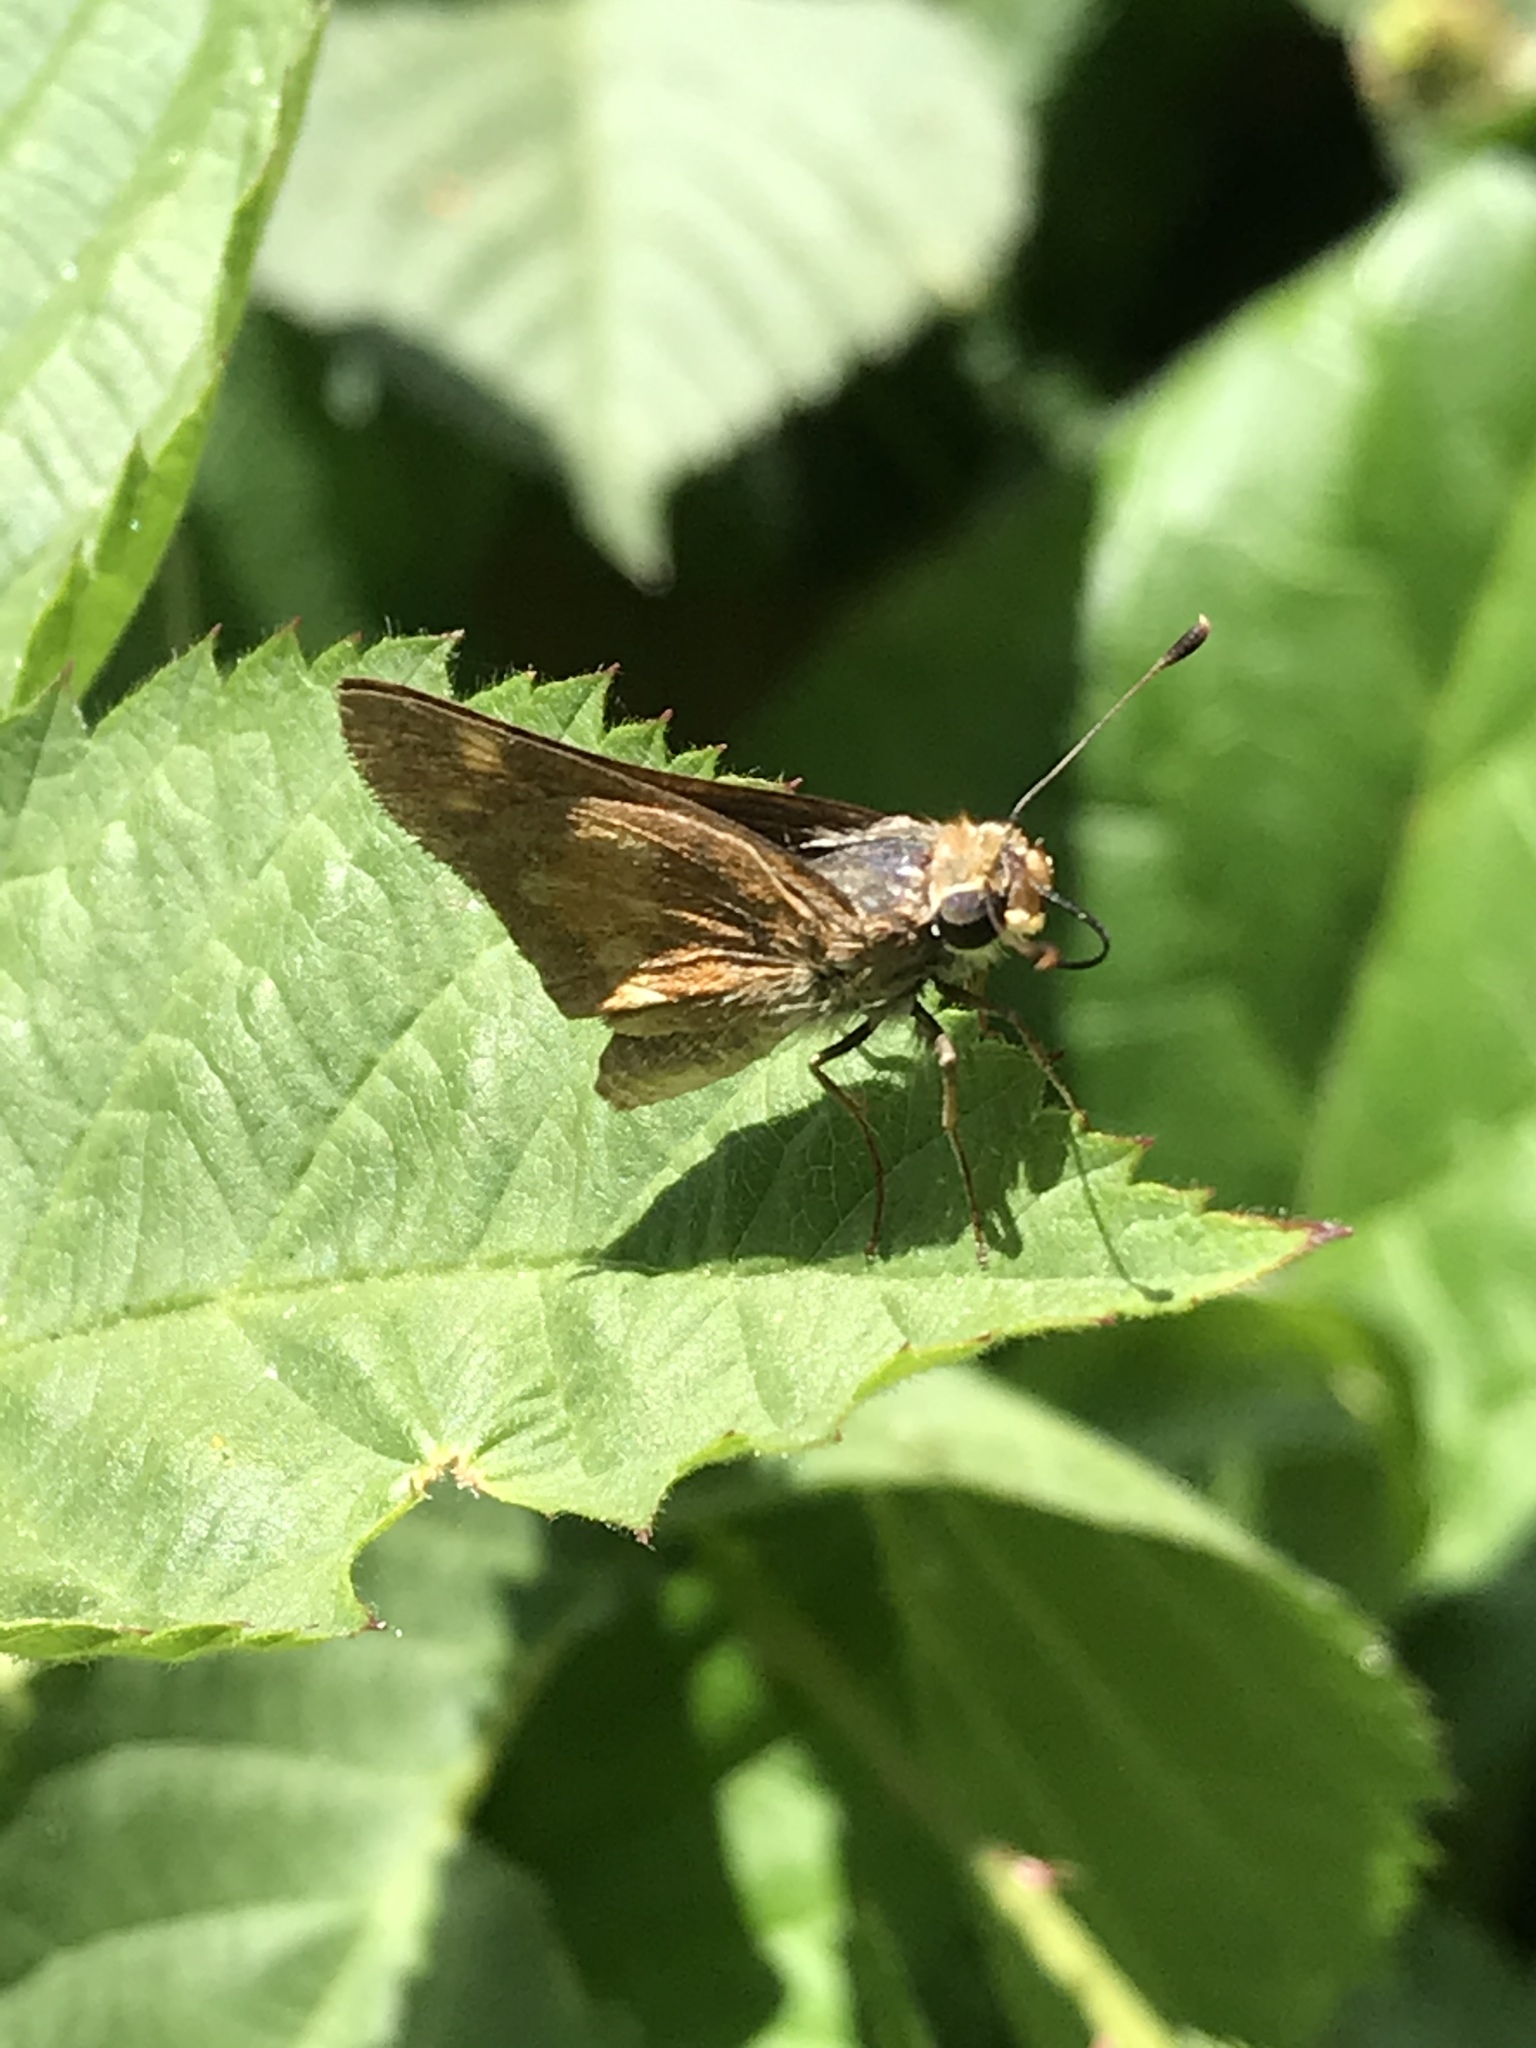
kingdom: Animalia
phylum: Arthropoda
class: Insecta
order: Lepidoptera
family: Hesperiidae
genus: Lon
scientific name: Lon melane
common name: Umber skipper
